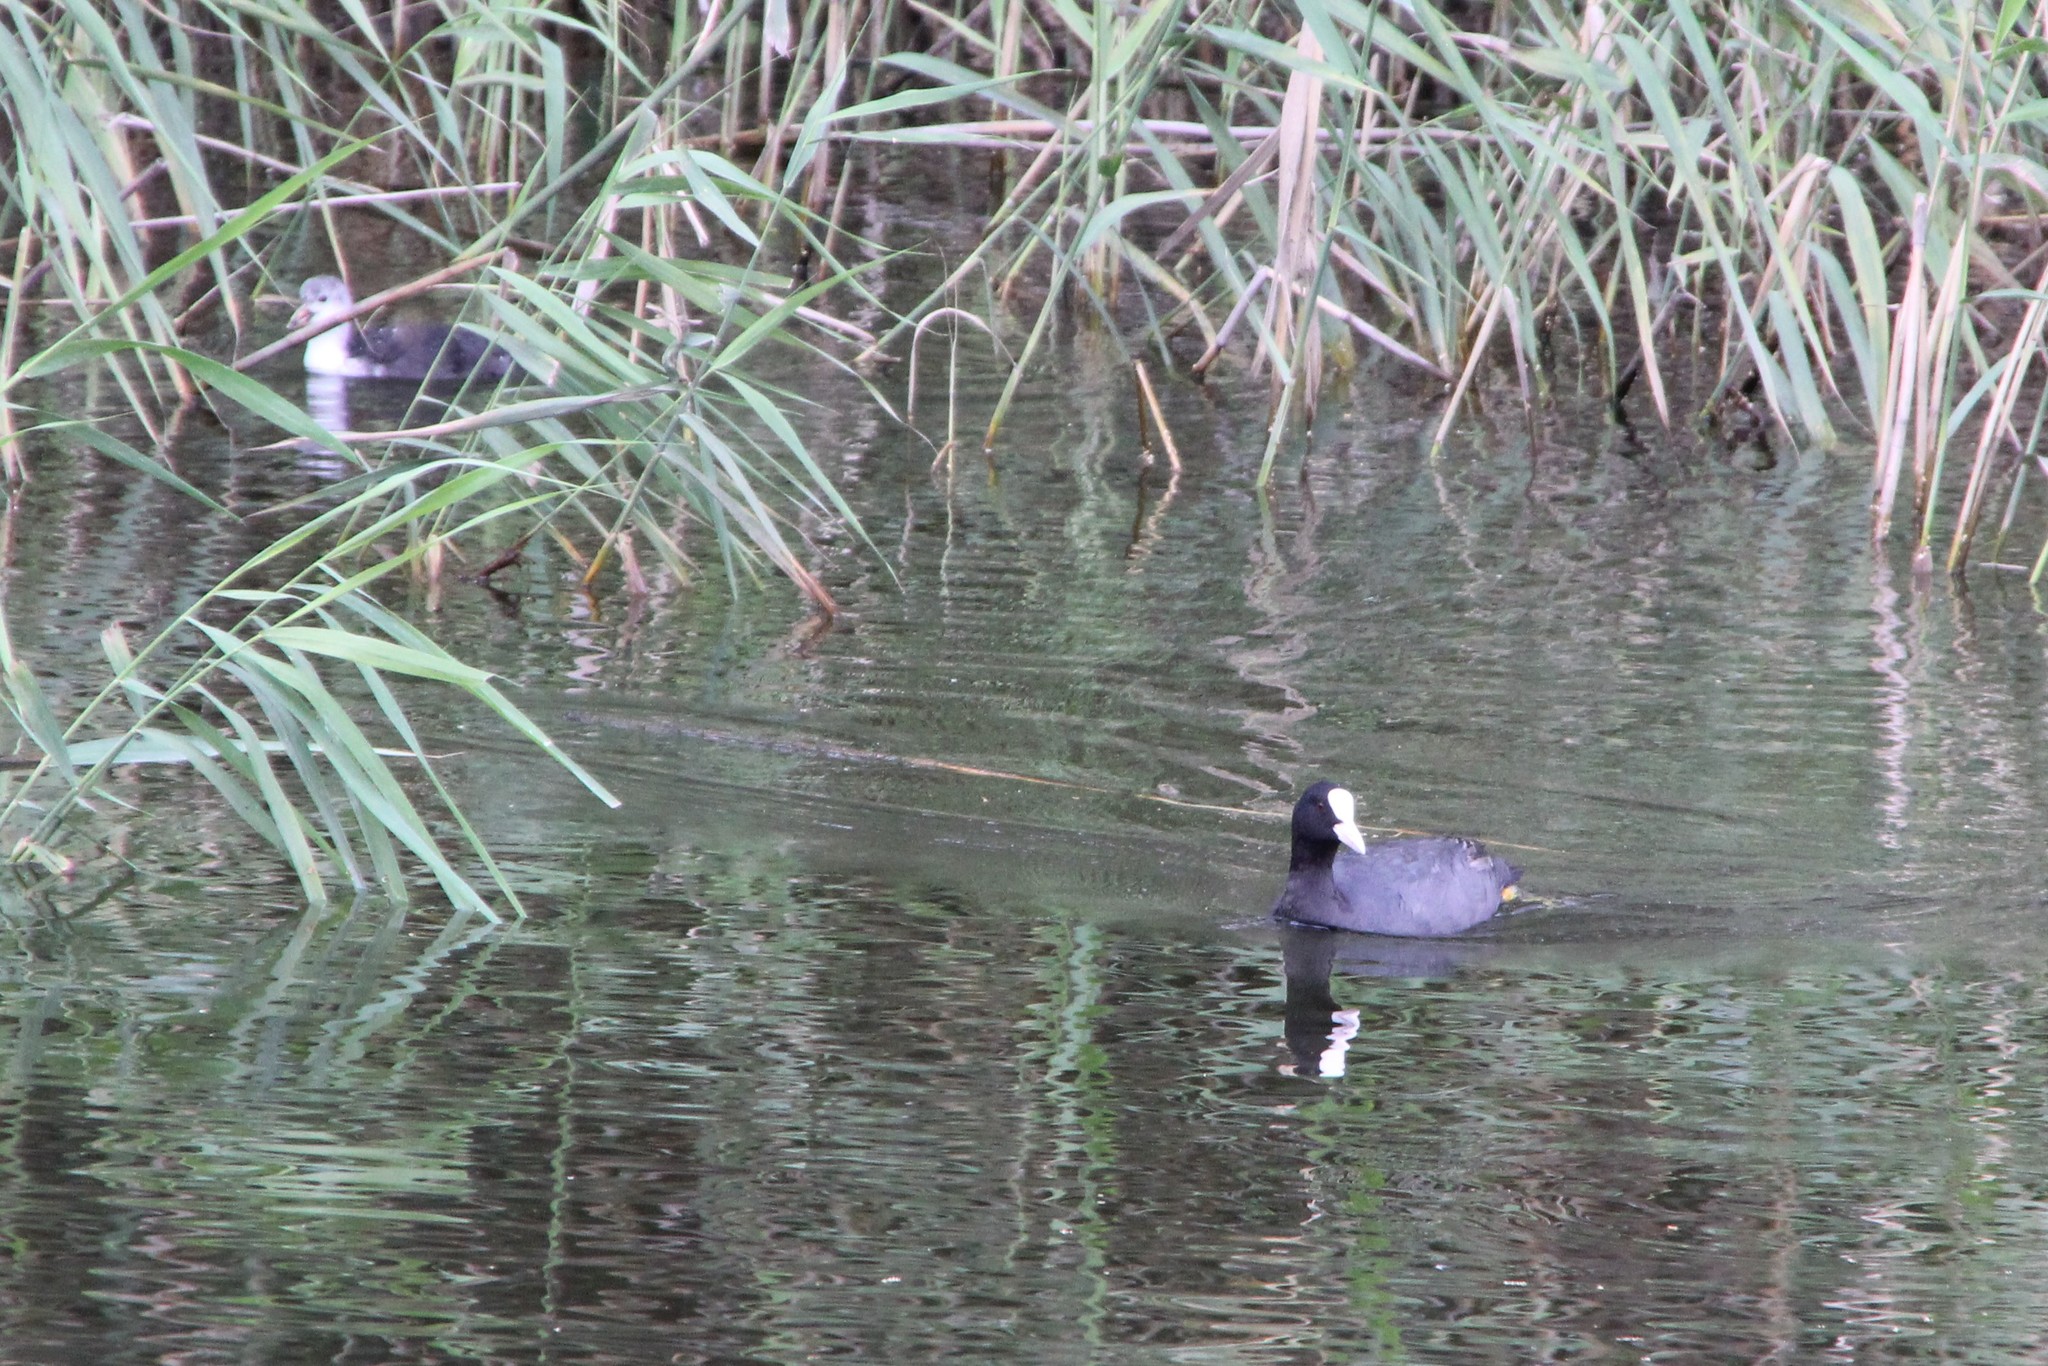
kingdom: Animalia
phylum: Chordata
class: Aves
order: Gruiformes
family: Rallidae
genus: Fulica
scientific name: Fulica atra
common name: Eurasian coot
